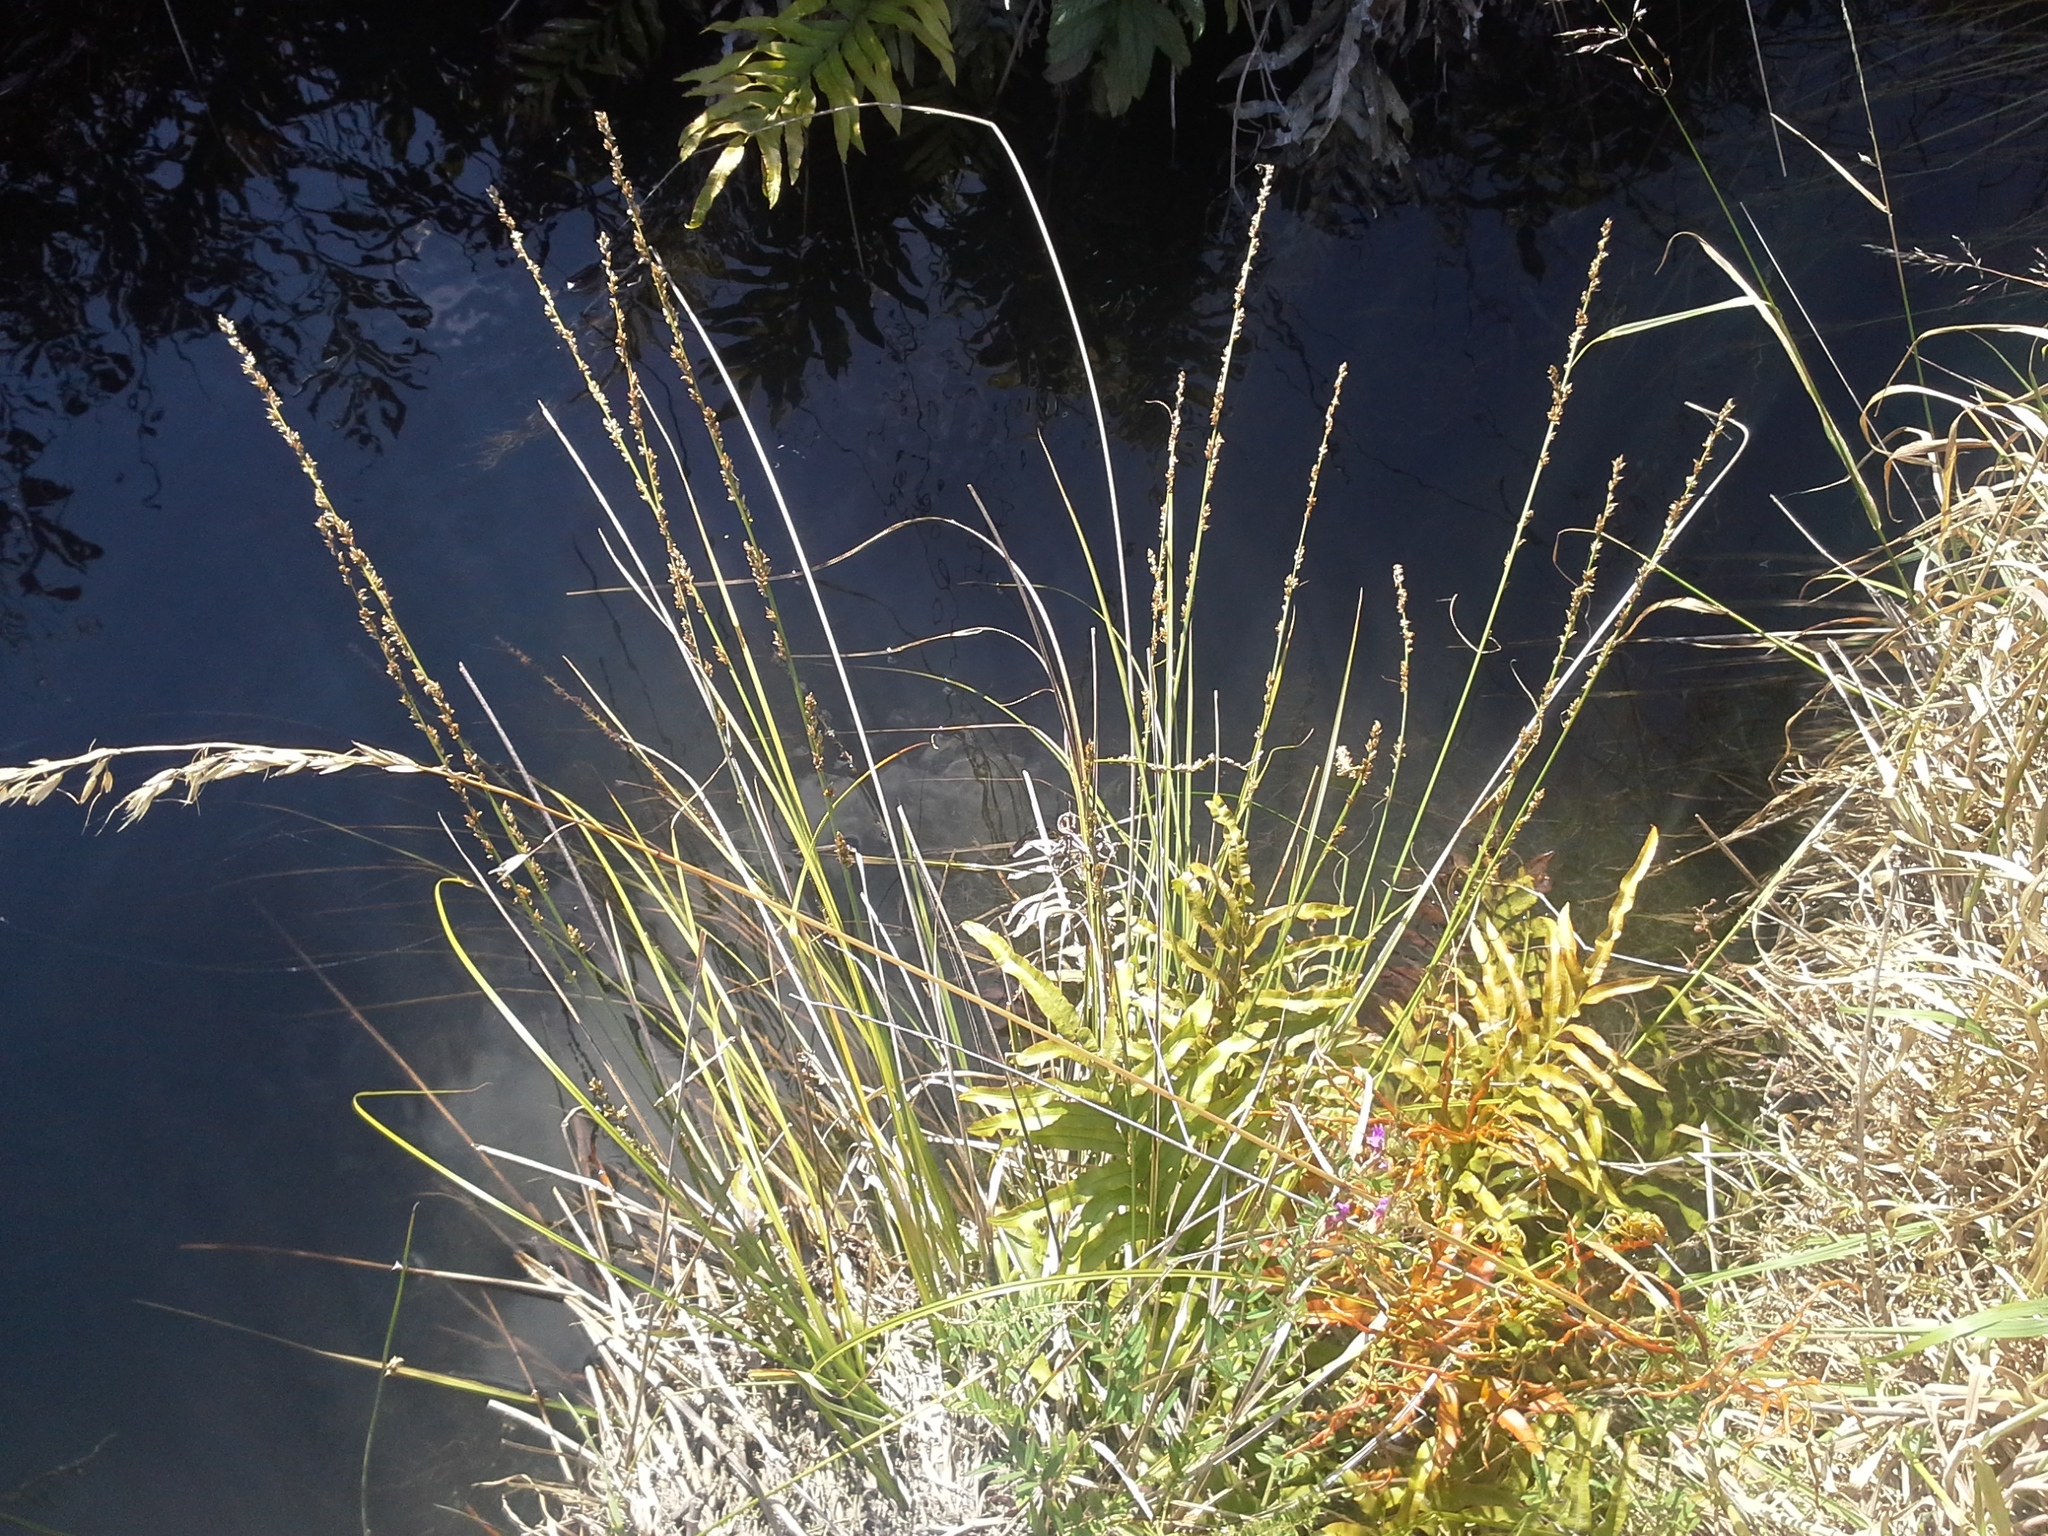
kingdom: Plantae
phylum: Tracheophyta
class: Liliopsida
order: Poales
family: Cyperaceae
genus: Carex
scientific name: Carex virgata
